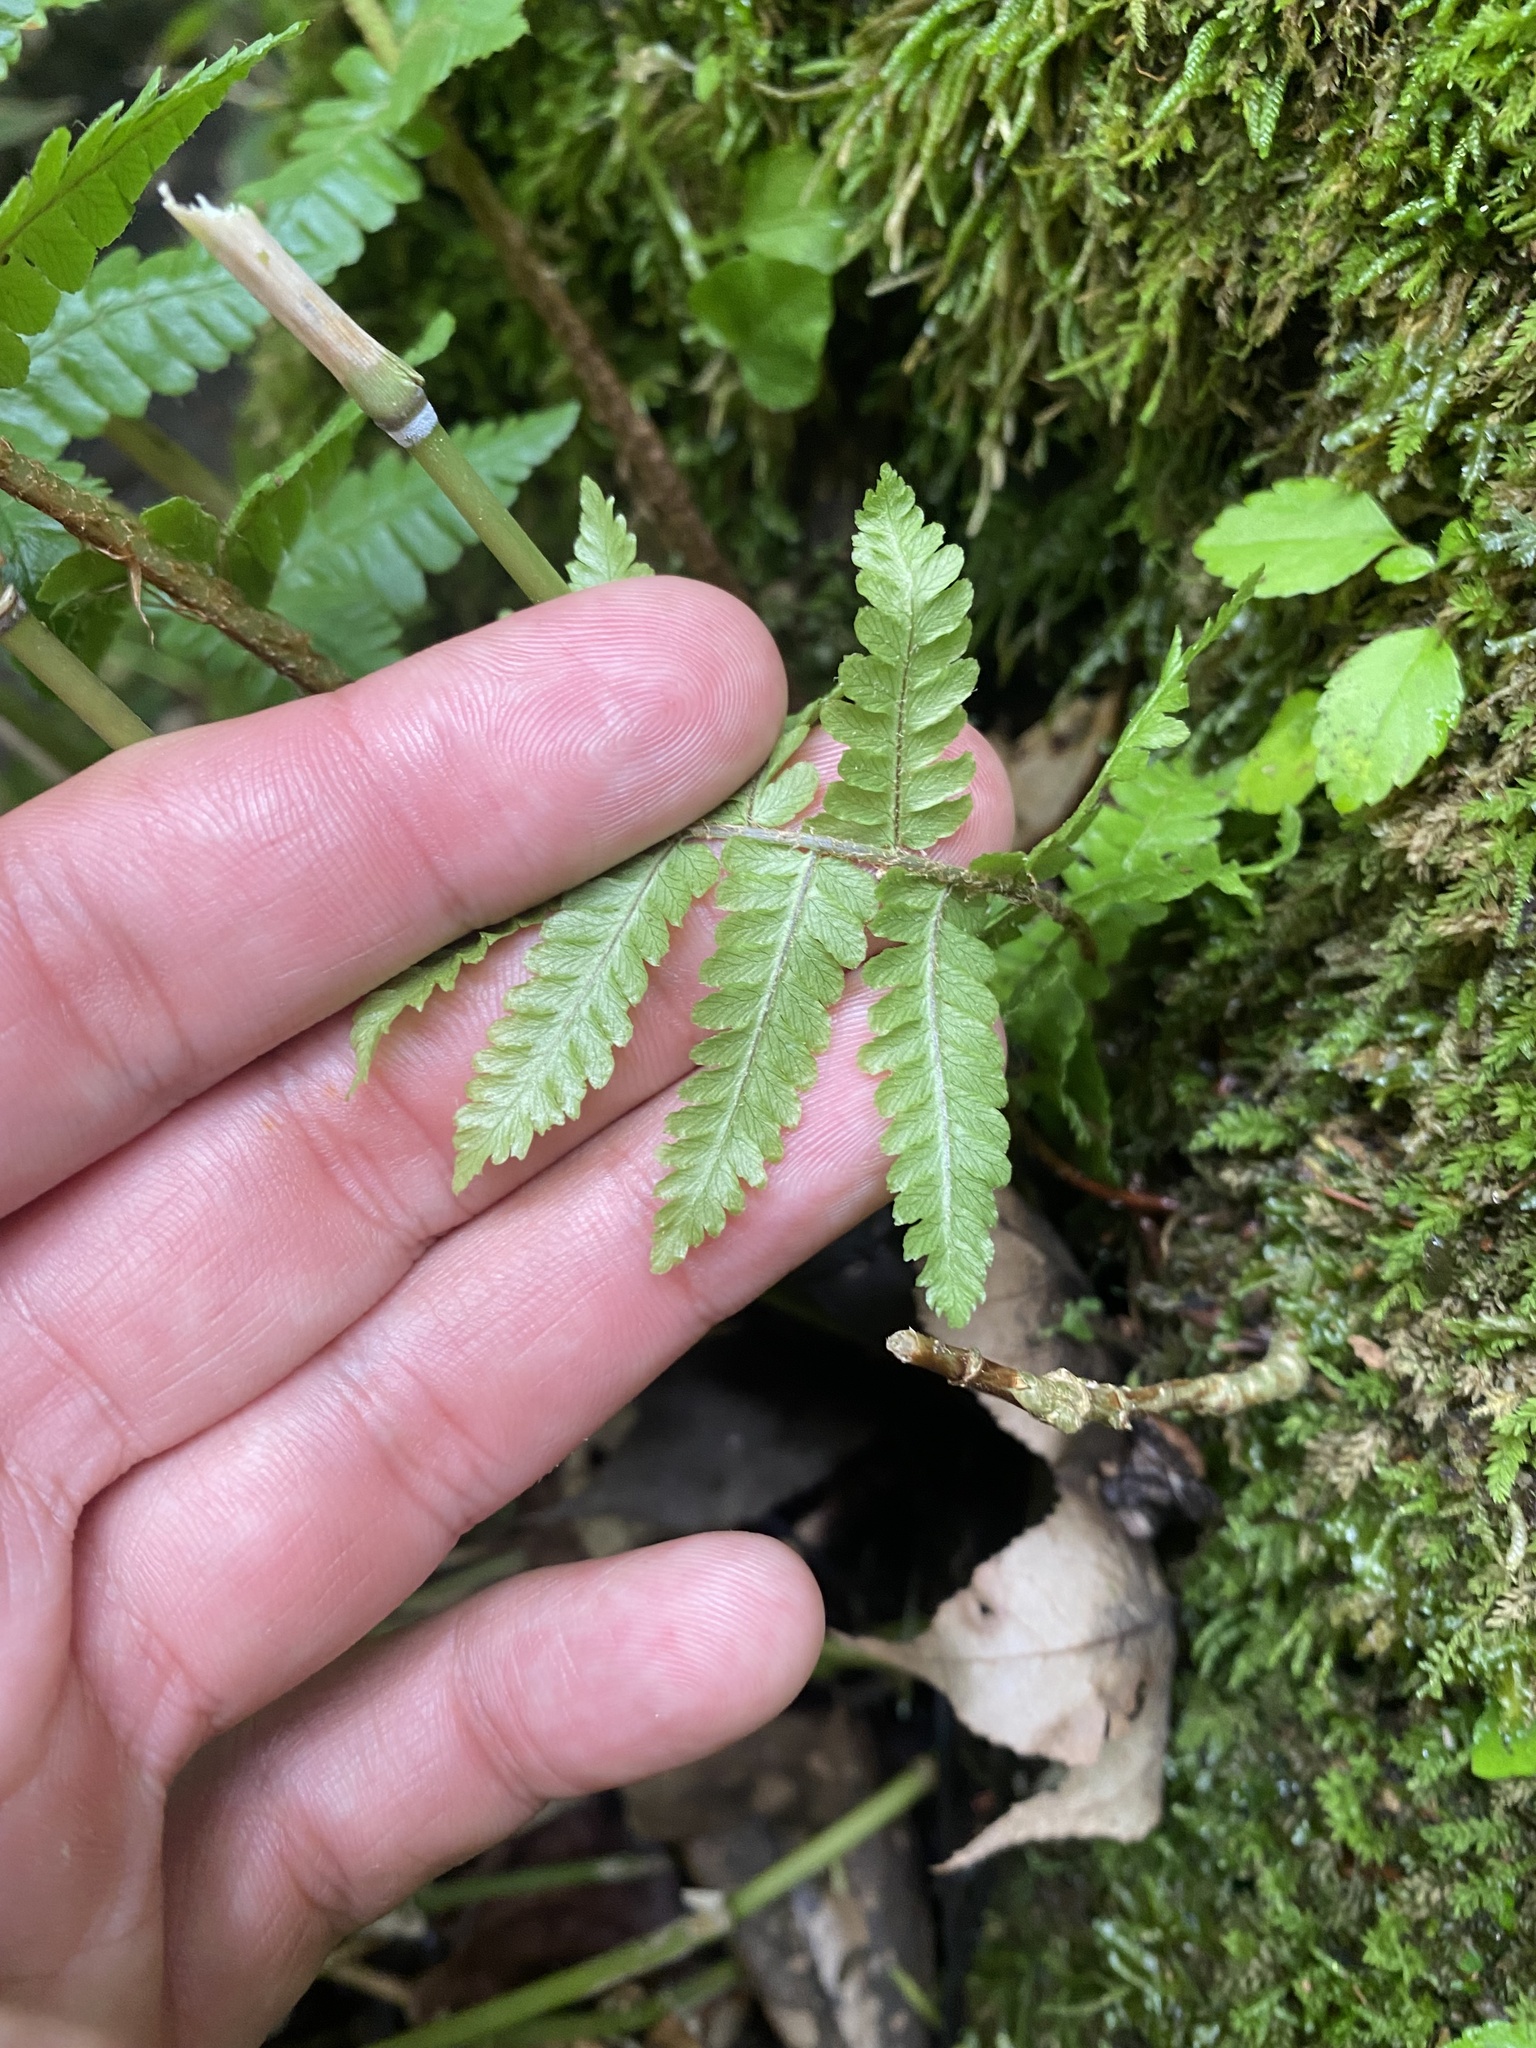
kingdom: Plantae
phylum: Tracheophyta
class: Polypodiopsida
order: Polypodiales
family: Dryopteridaceae
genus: Dryopteris
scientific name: Dryopteris crassirhizoma
